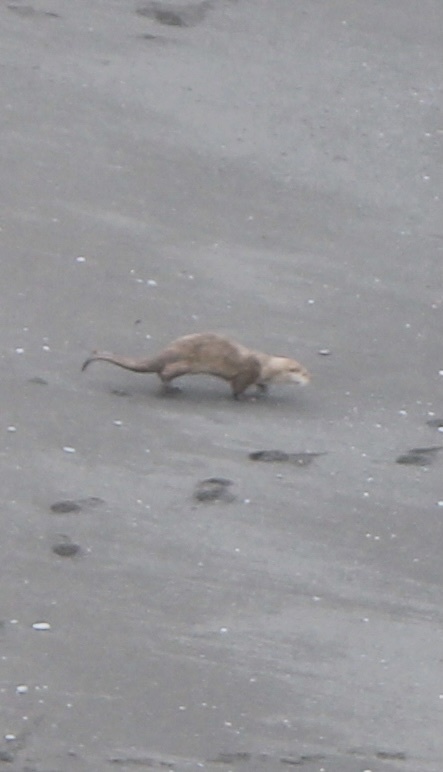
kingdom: Animalia
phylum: Chordata
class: Mammalia
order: Carnivora
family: Mustelidae
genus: Lontra
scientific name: Lontra canadensis
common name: North american river otter
